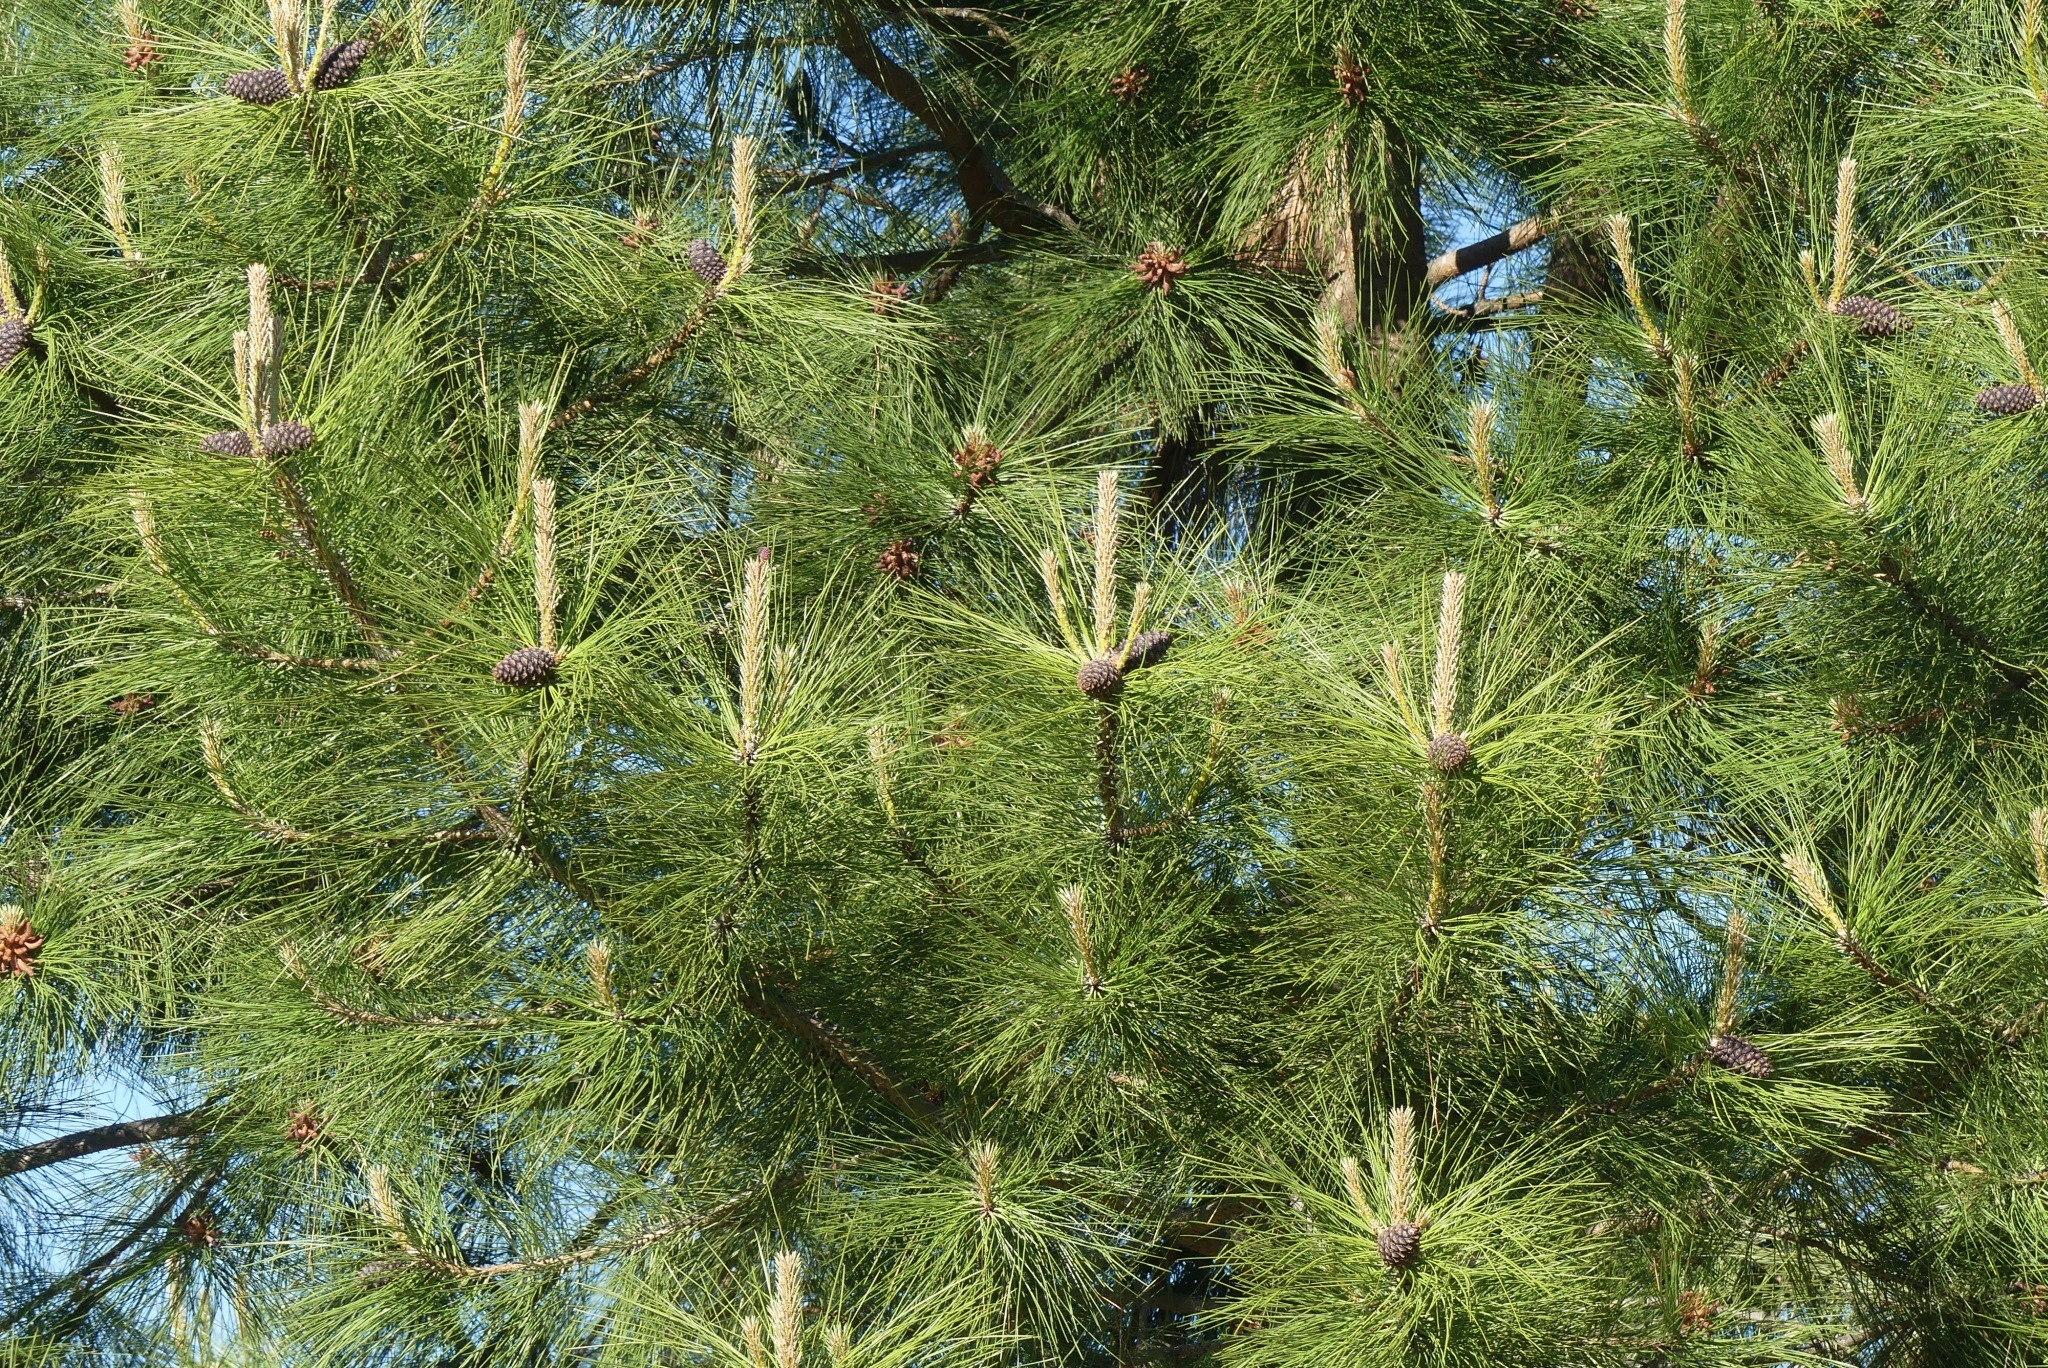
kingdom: Plantae
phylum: Tracheophyta
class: Pinopsida
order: Pinales
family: Pinaceae
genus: Pinus
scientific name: Pinus ponderosa
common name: Western yellow-pine
